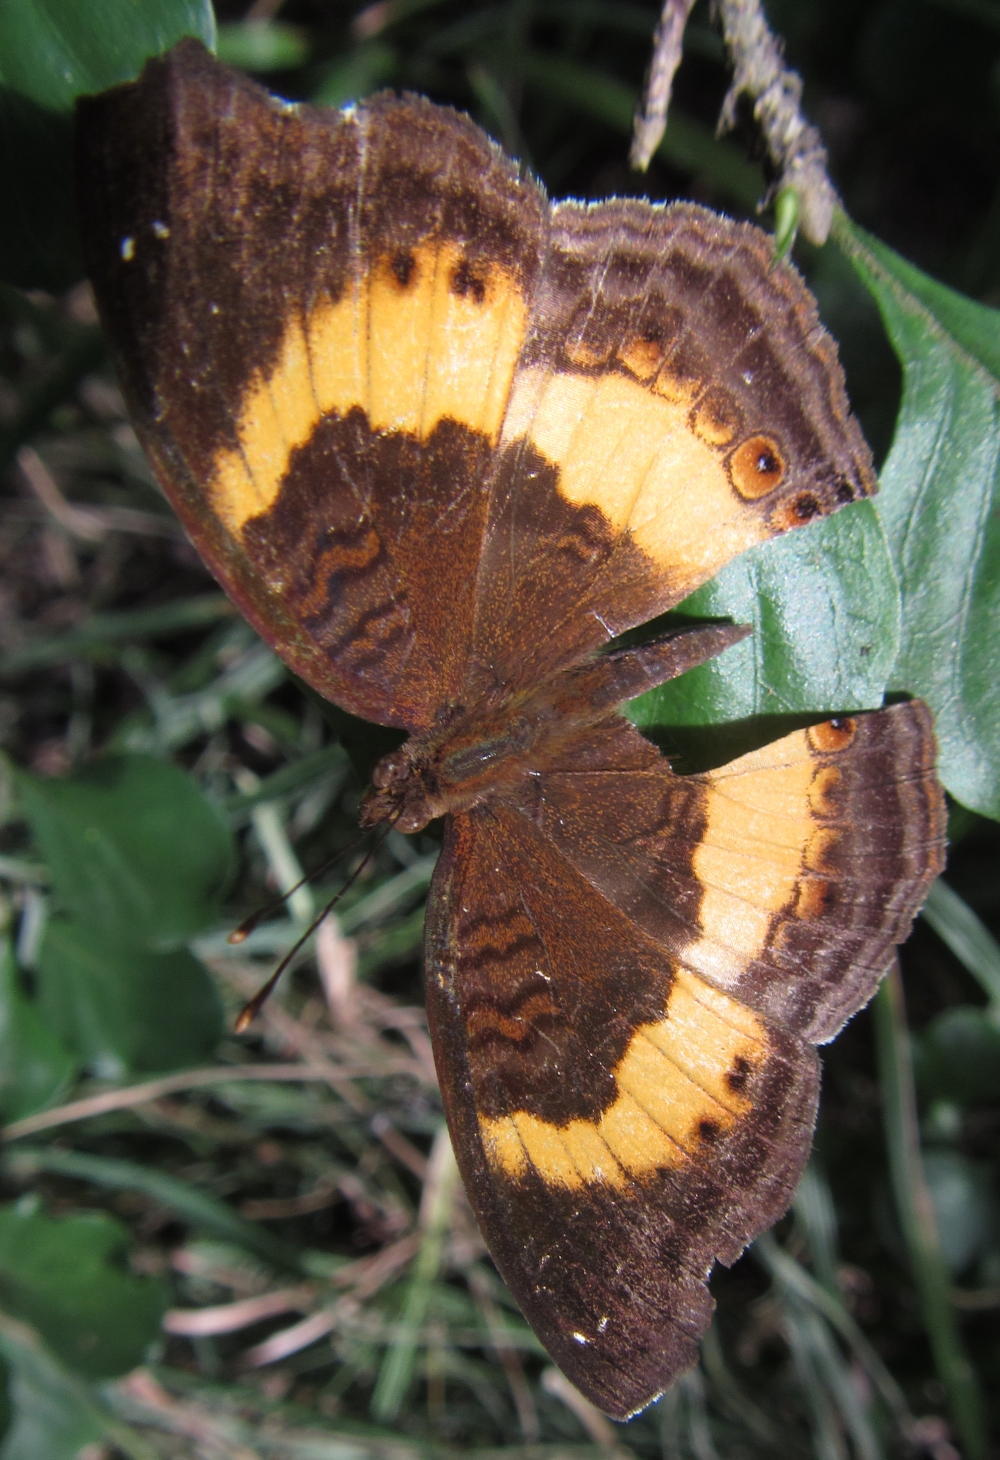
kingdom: Animalia
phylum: Arthropoda
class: Insecta
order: Lepidoptera
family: Nymphalidae
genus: Junonia
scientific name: Junonia terea
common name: Soldier pansy
